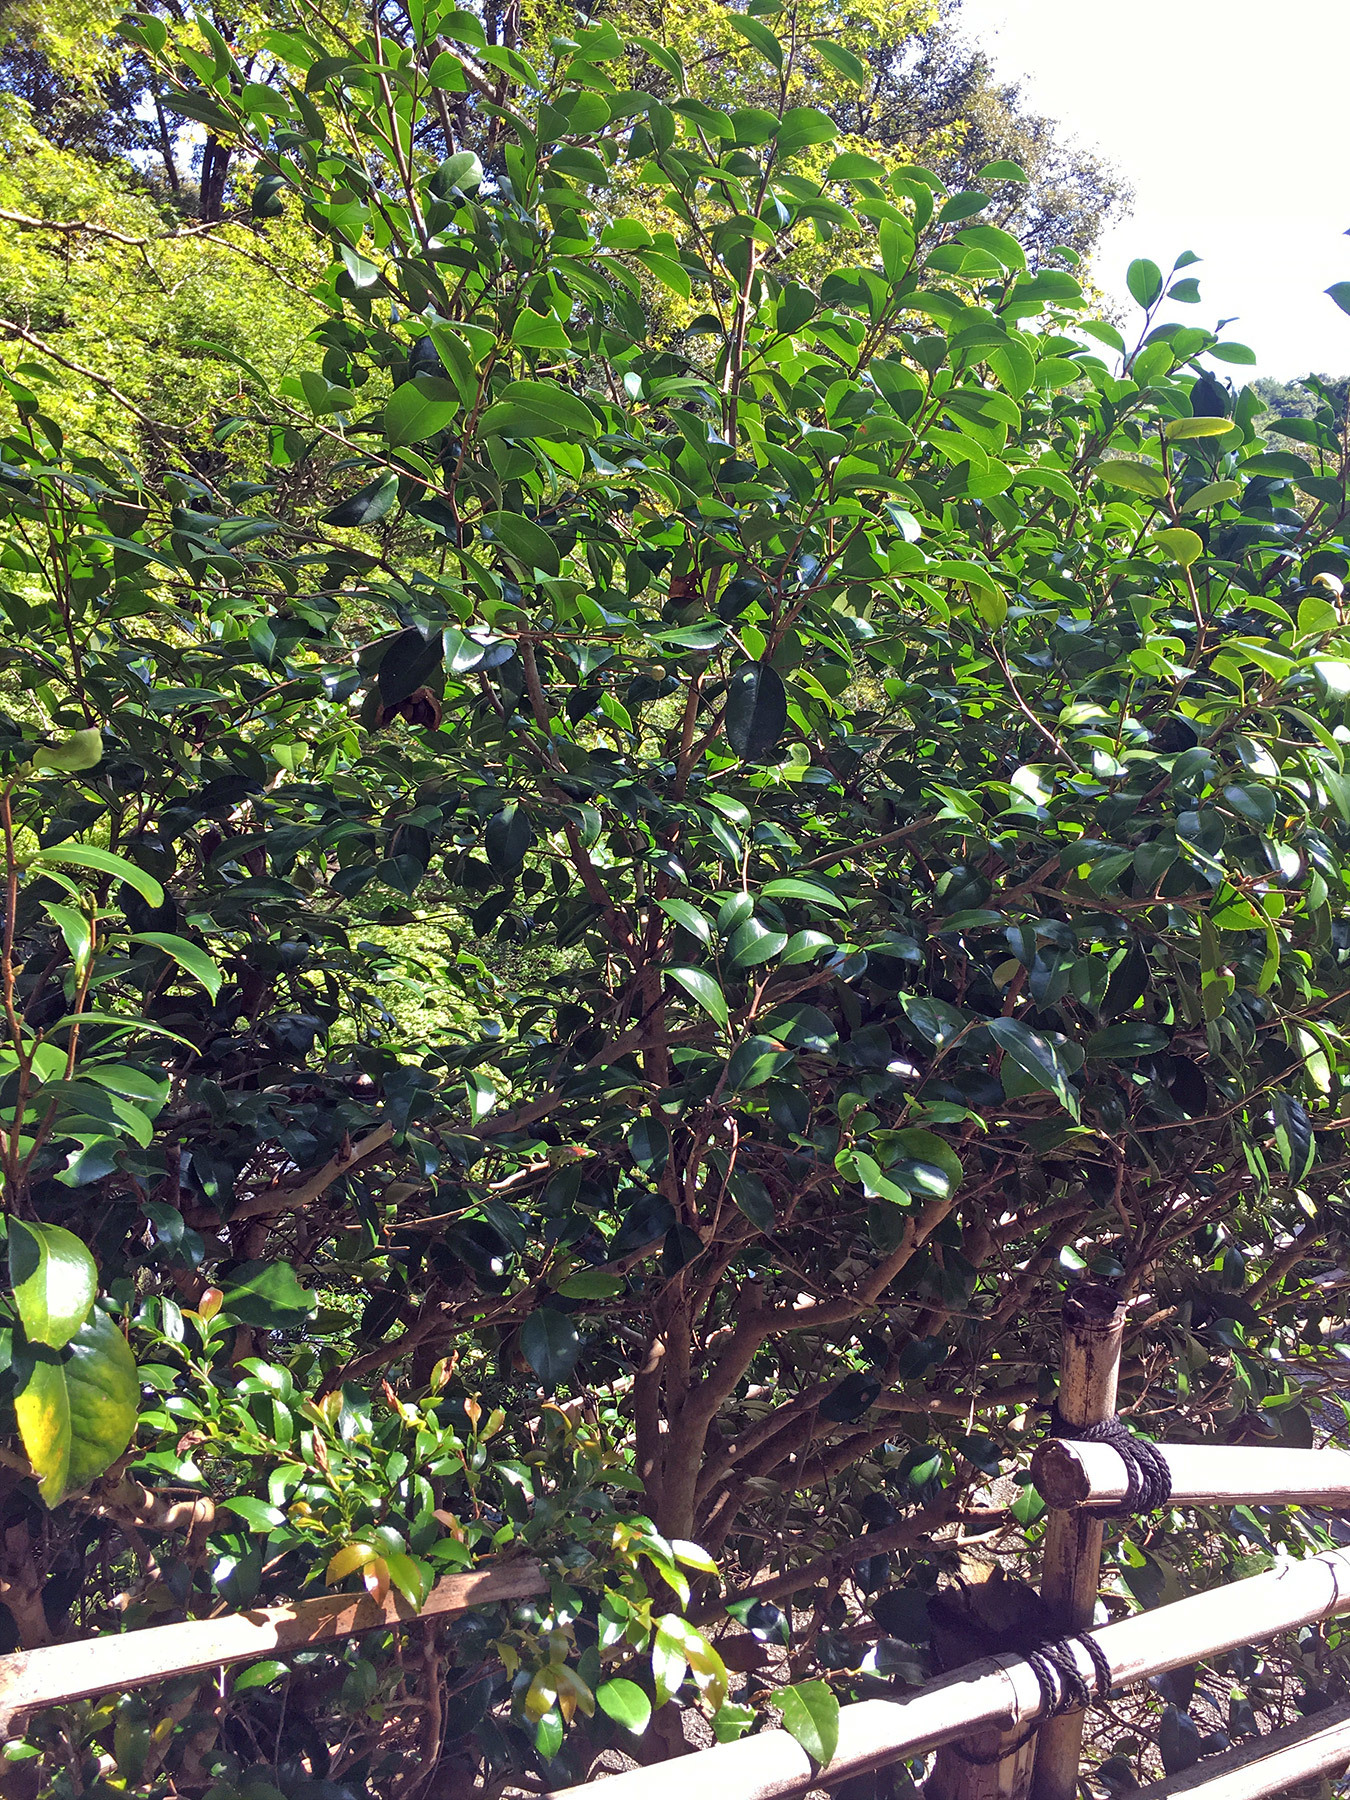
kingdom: Plantae
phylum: Tracheophyta
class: Magnoliopsida
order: Ericales
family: Theaceae
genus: Camellia
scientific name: Camellia sasanqua
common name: Sasanqua camellia
